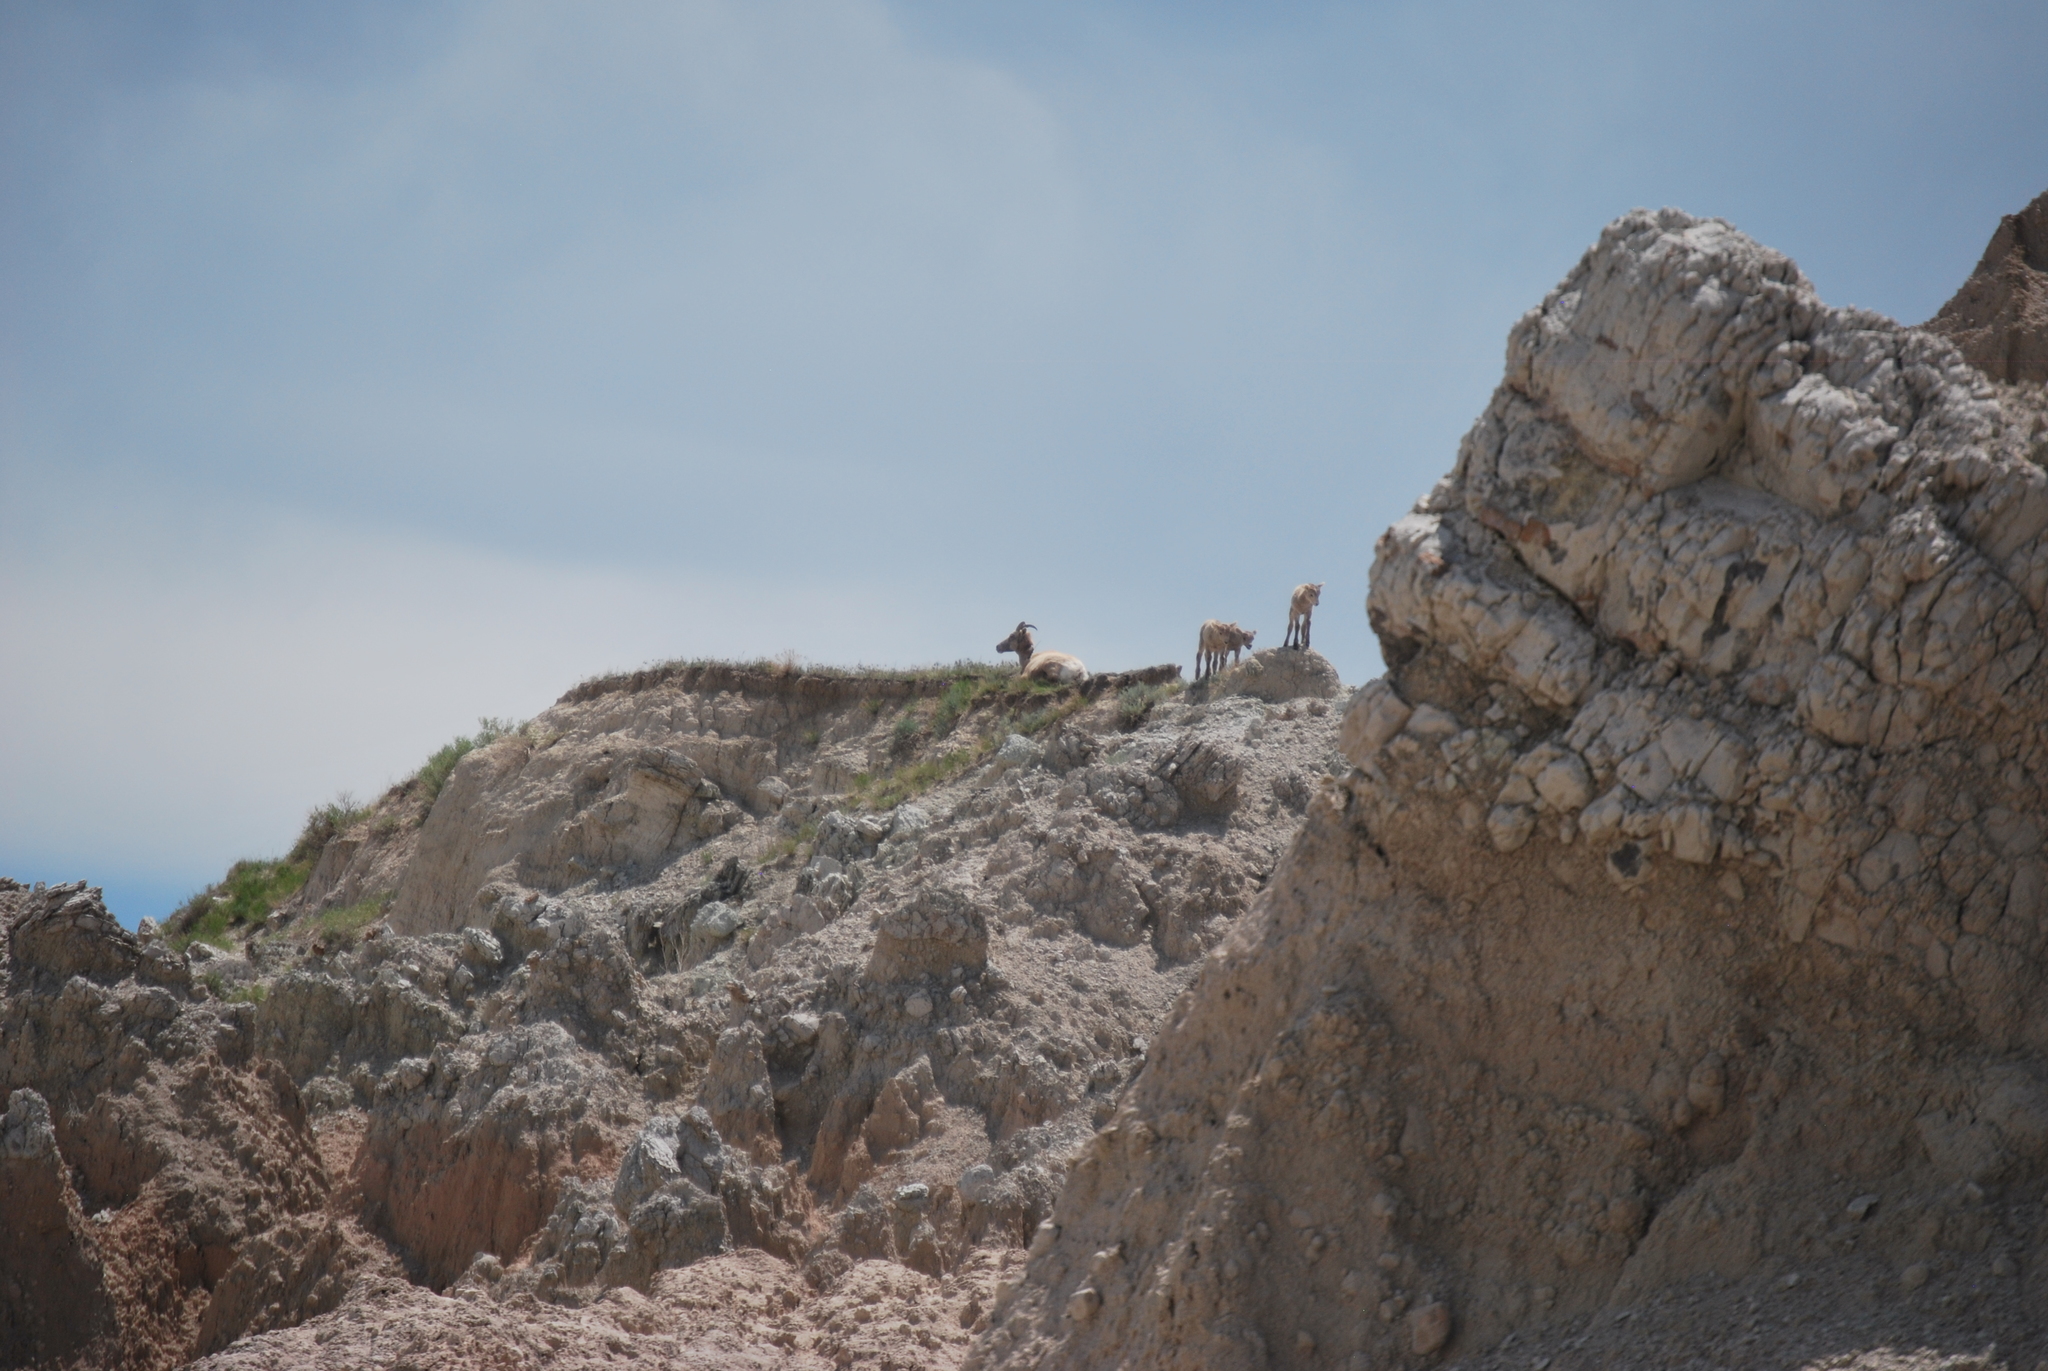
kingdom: Animalia
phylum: Chordata
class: Mammalia
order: Artiodactyla
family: Bovidae
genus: Ovis
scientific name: Ovis canadensis
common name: Bighorn sheep
